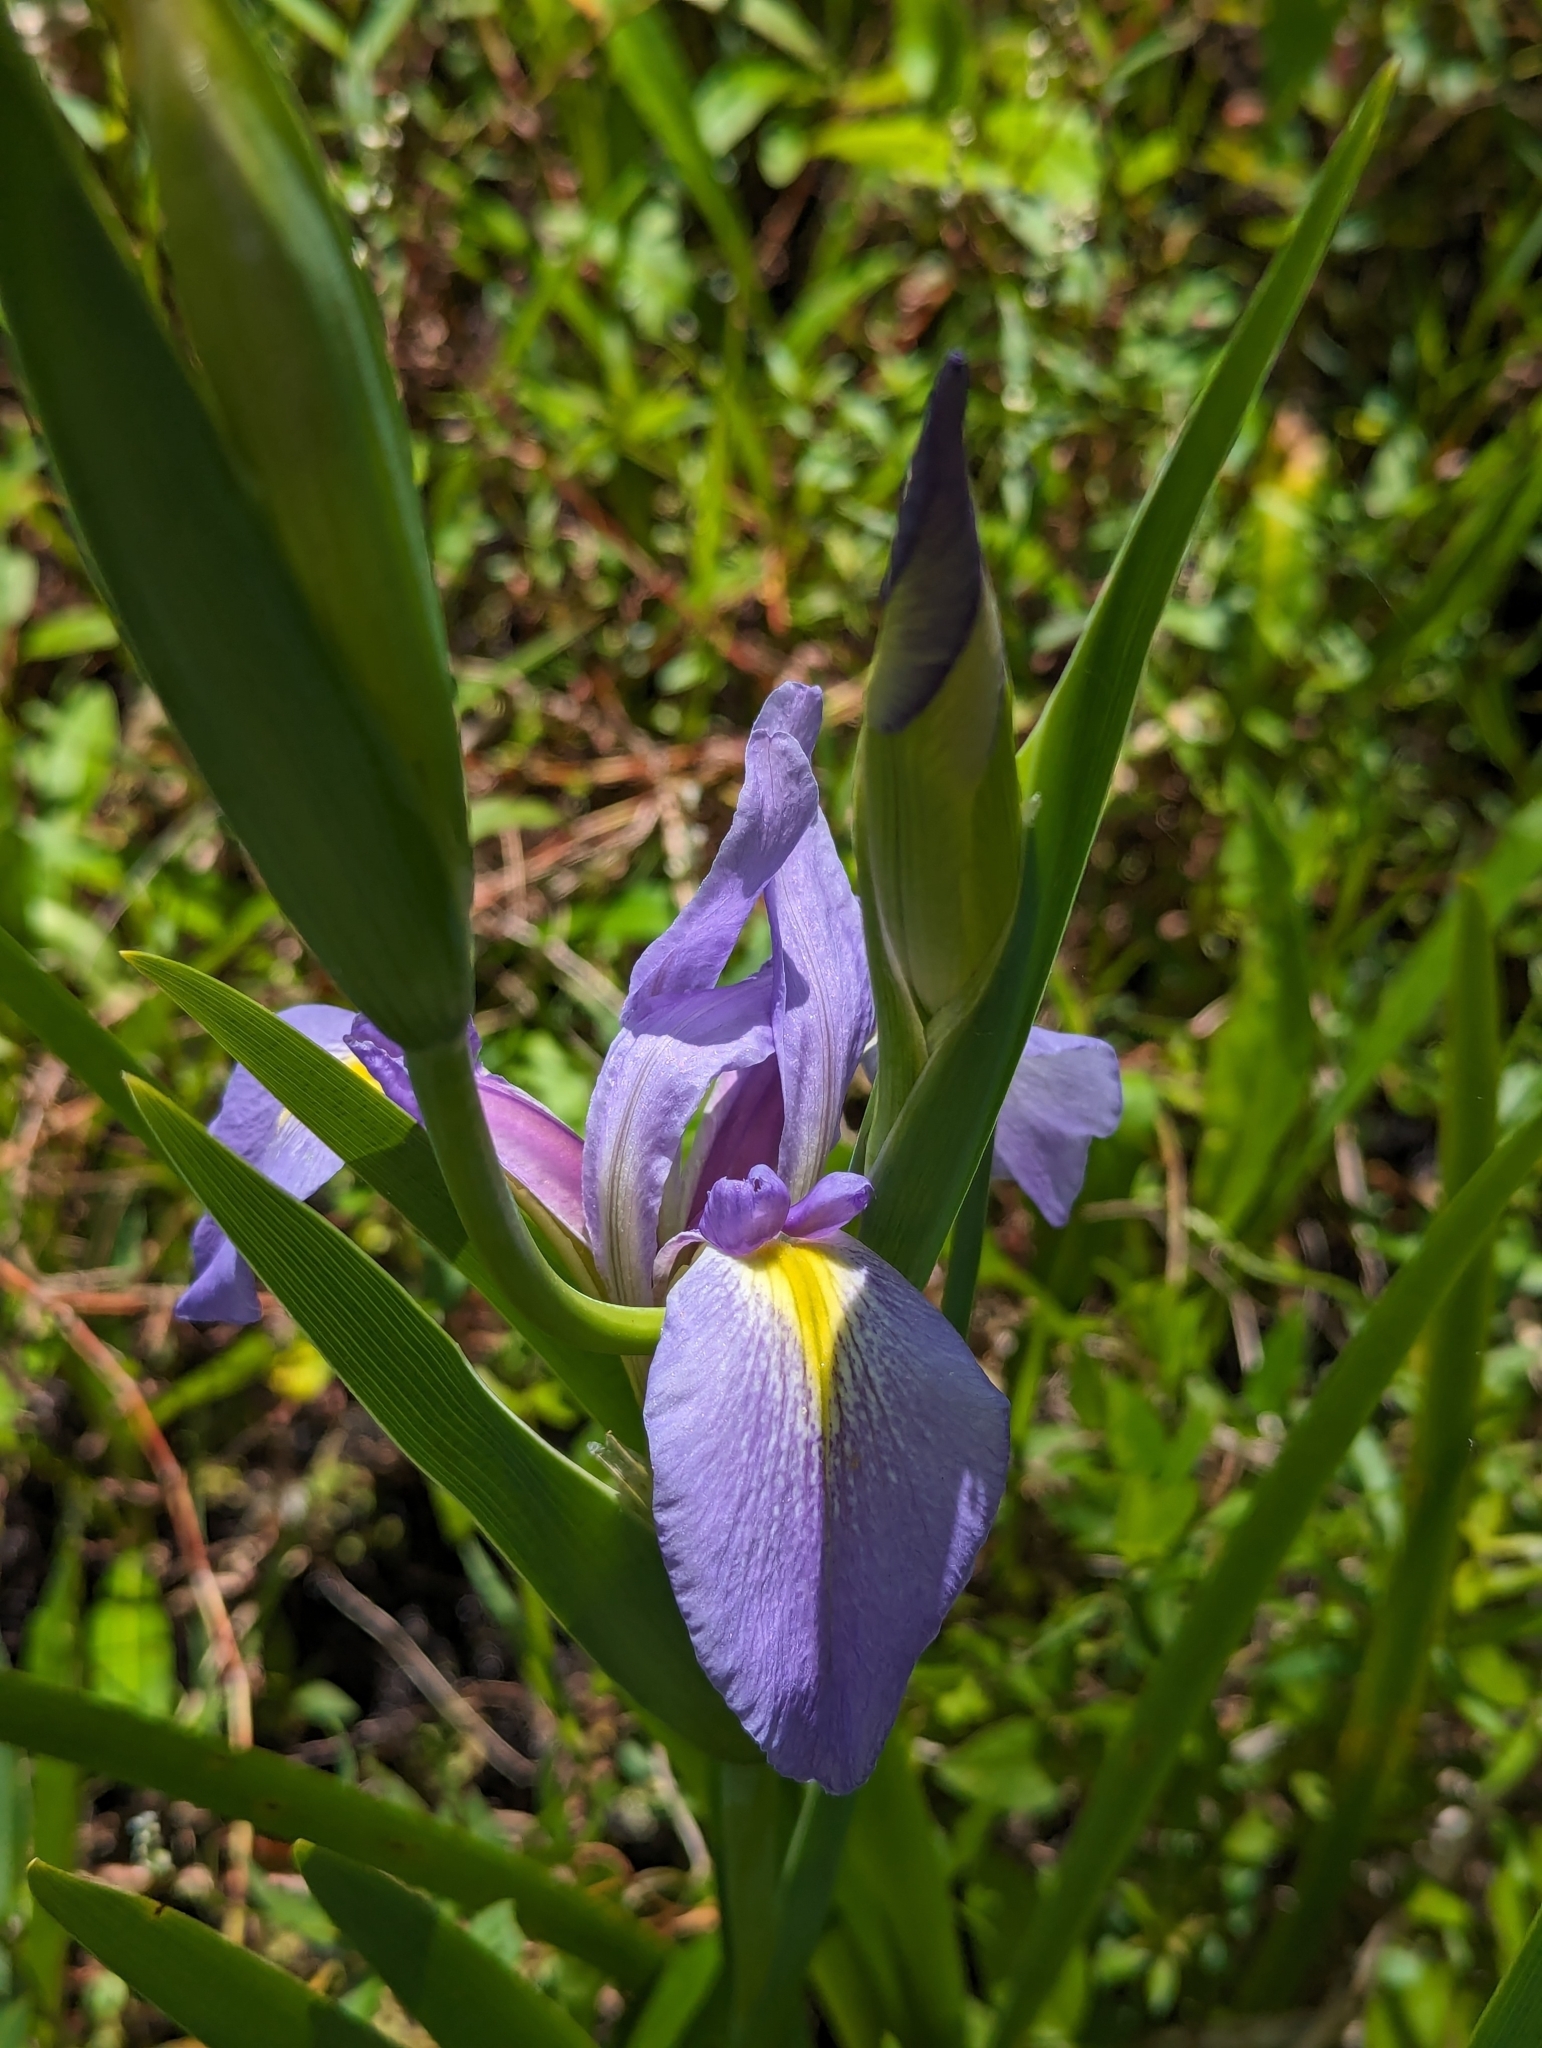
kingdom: Plantae
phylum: Tracheophyta
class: Liliopsida
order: Asparagales
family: Iridaceae
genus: Iris
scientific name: Iris savannarum
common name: Prairie iris
